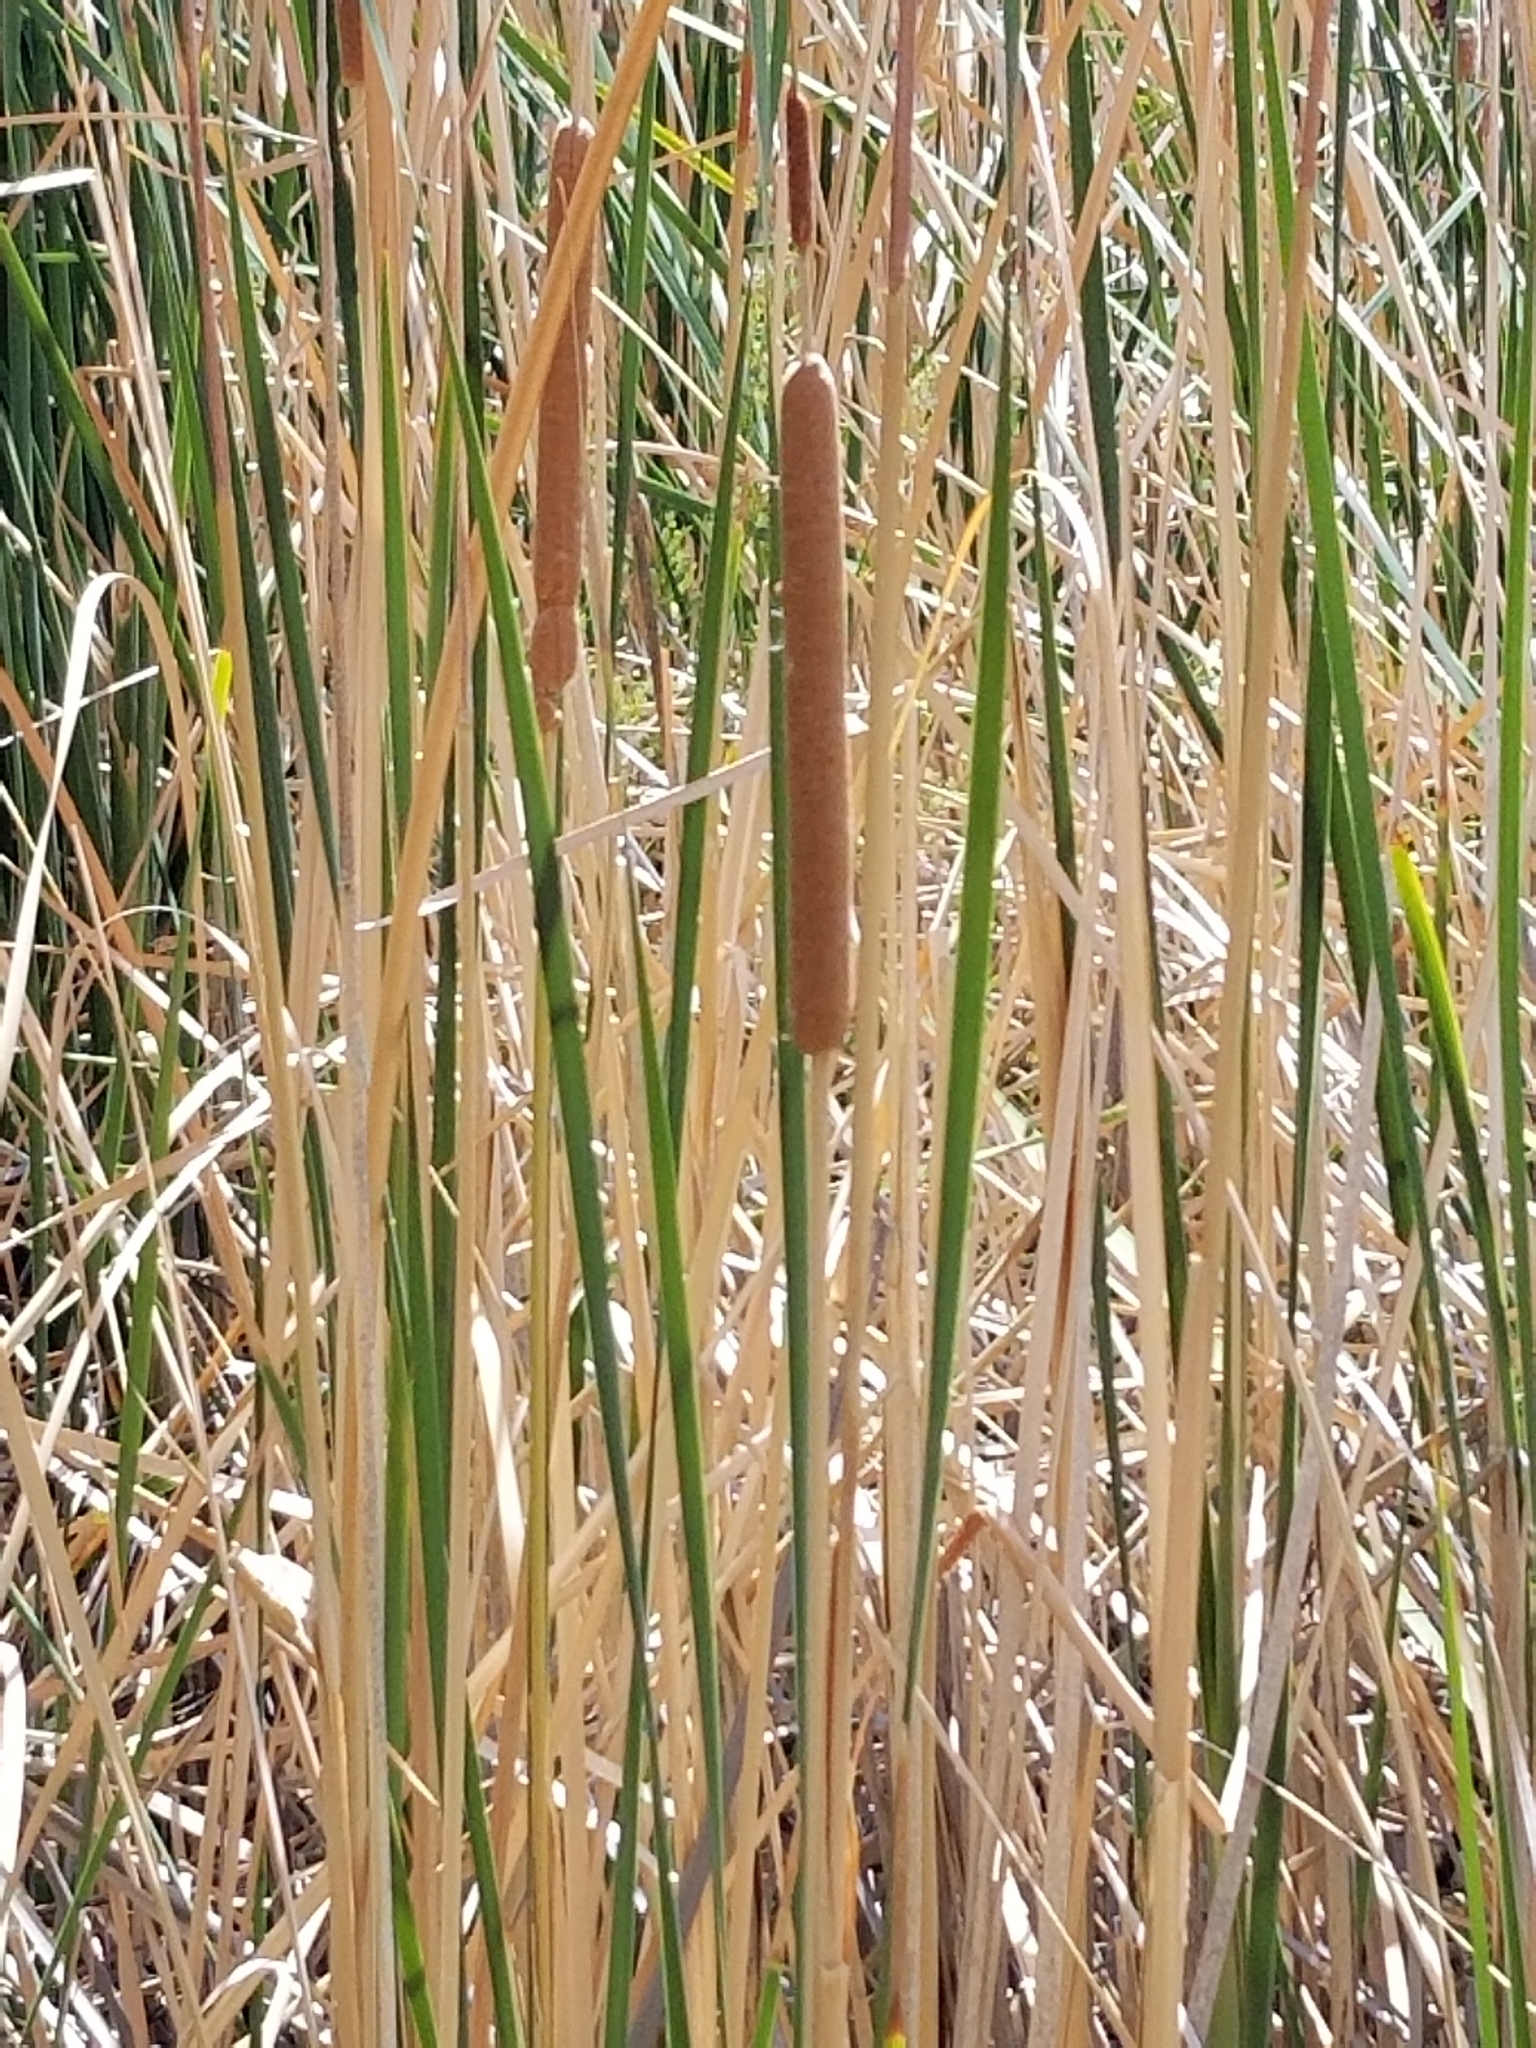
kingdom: Plantae
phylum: Tracheophyta
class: Liliopsida
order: Poales
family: Typhaceae
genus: Typha
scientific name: Typha latifolia
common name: Broadleaf cattail
